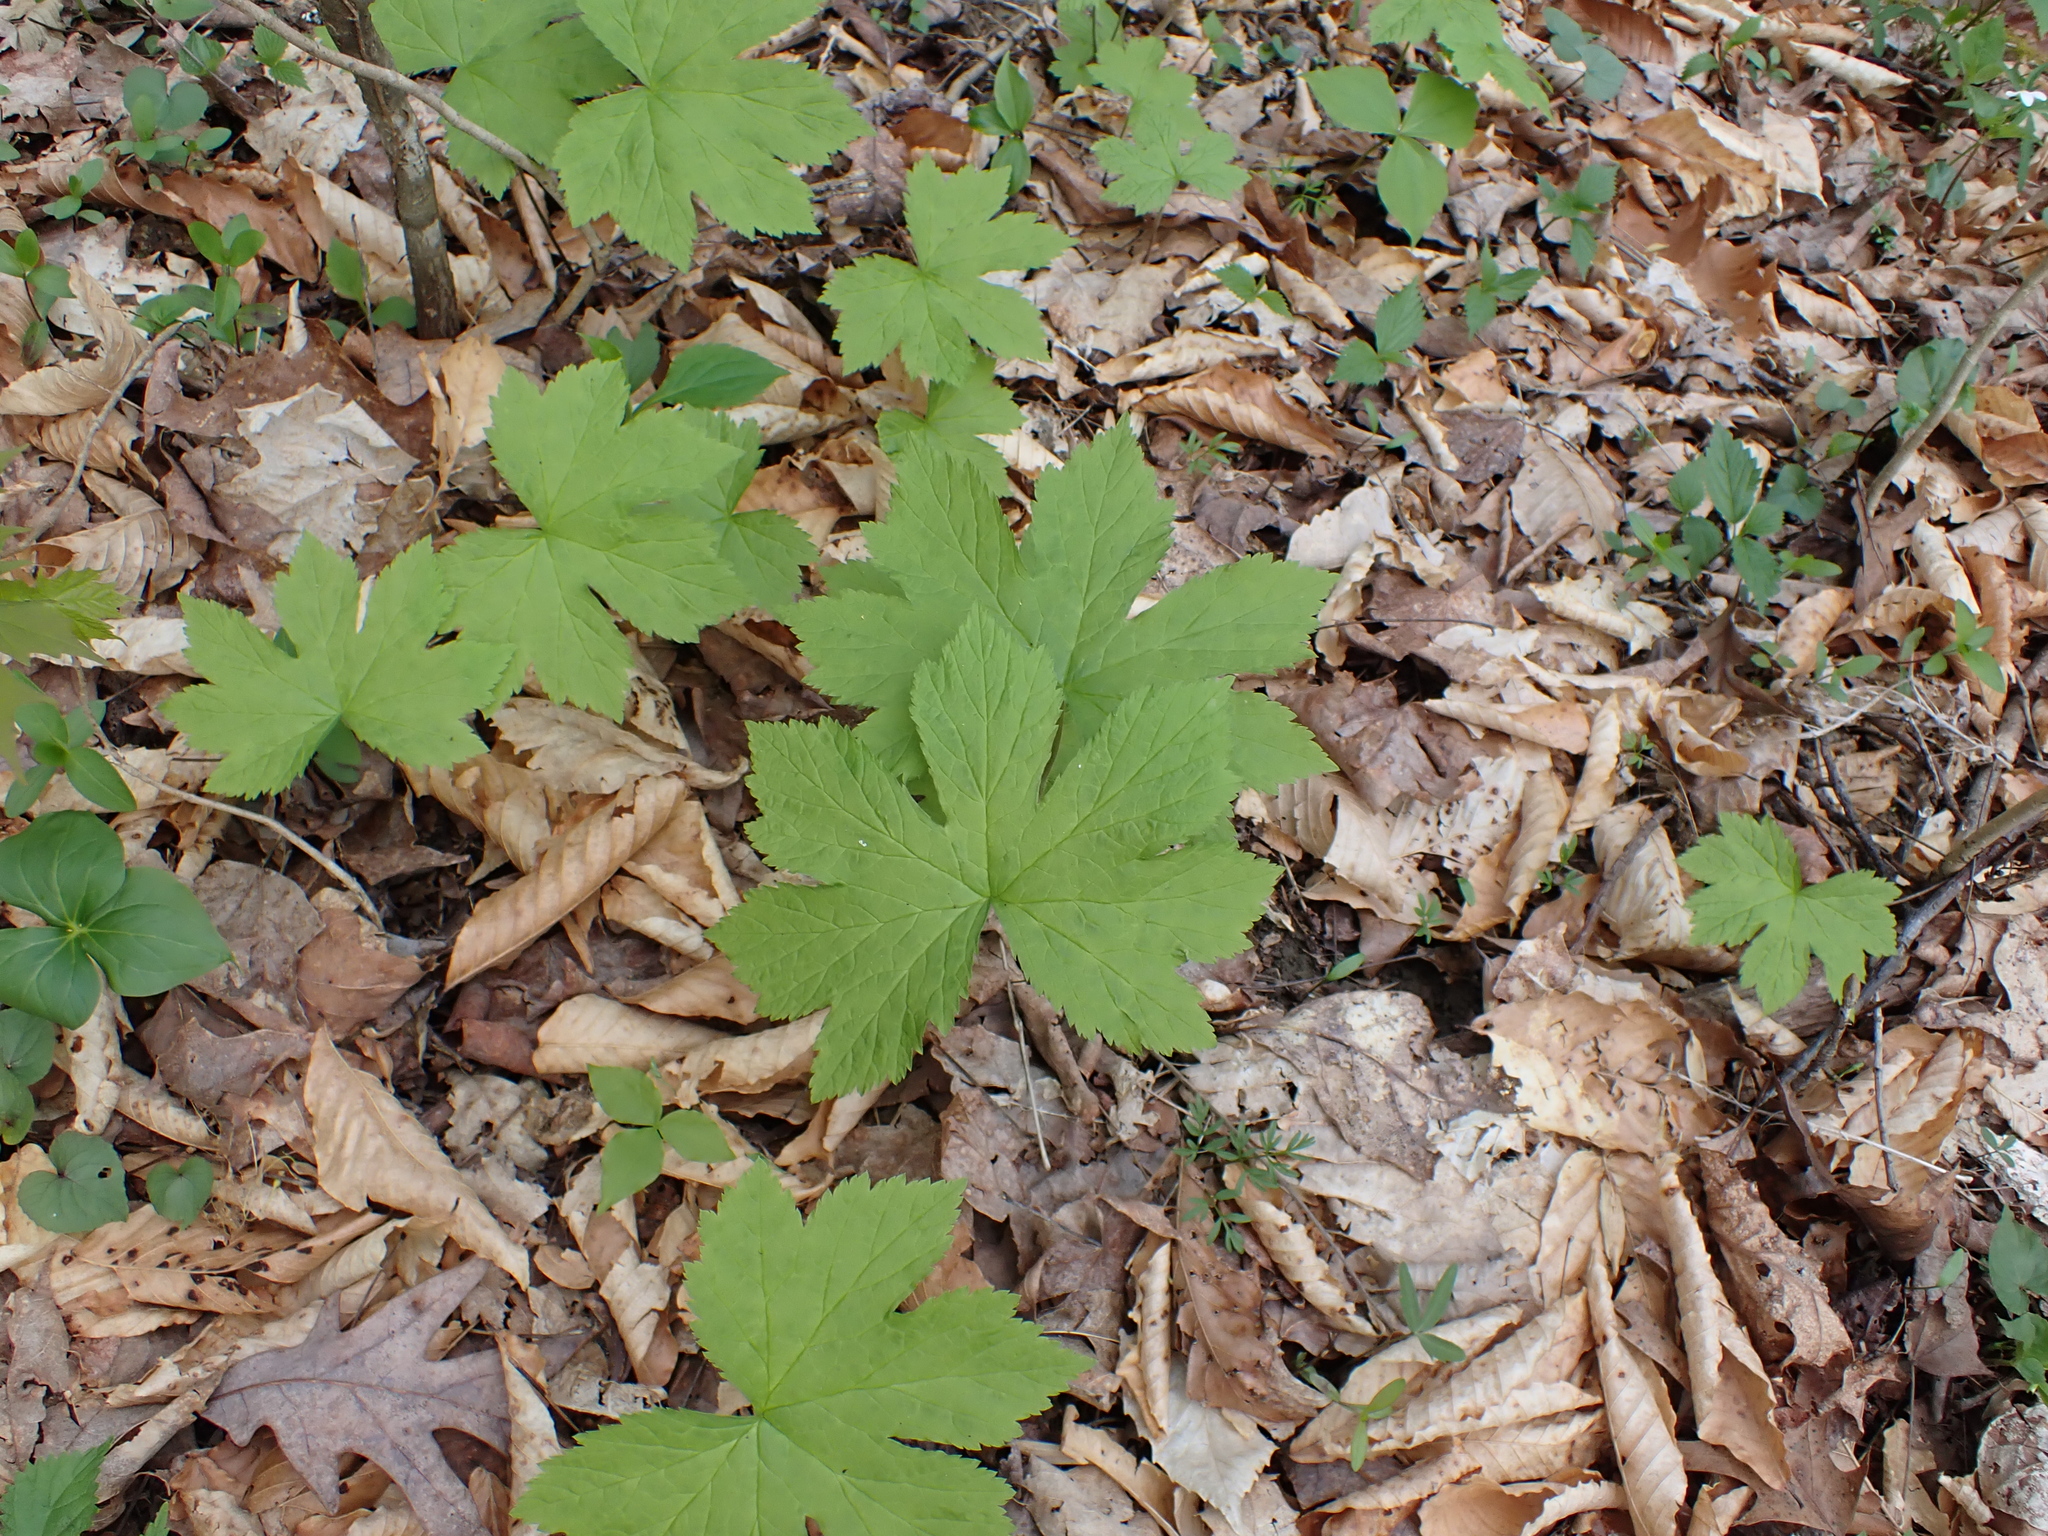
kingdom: Plantae
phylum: Tracheophyta
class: Magnoliopsida
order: Ranunculales
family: Ranunculaceae
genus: Hydrastis
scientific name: Hydrastis canadensis
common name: Goldenseal
